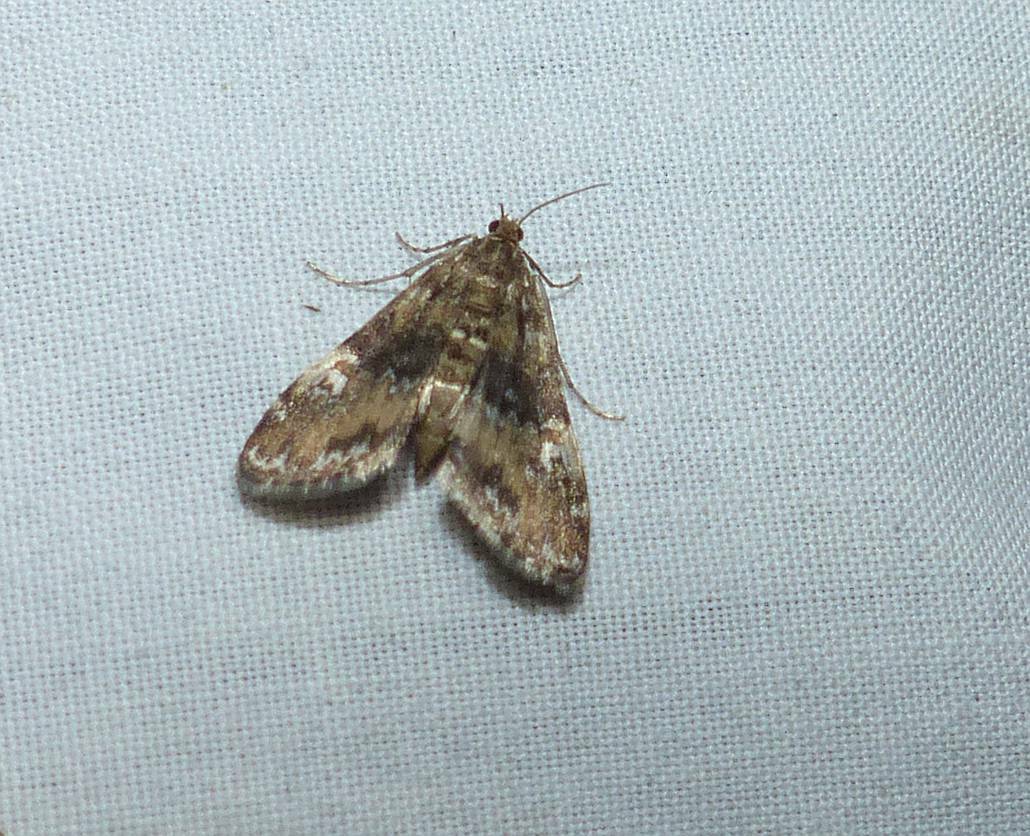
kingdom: Animalia
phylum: Arthropoda
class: Insecta
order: Lepidoptera
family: Crambidae
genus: Elophila
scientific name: Elophila obliteralis
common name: Waterlily leafcutter moth
